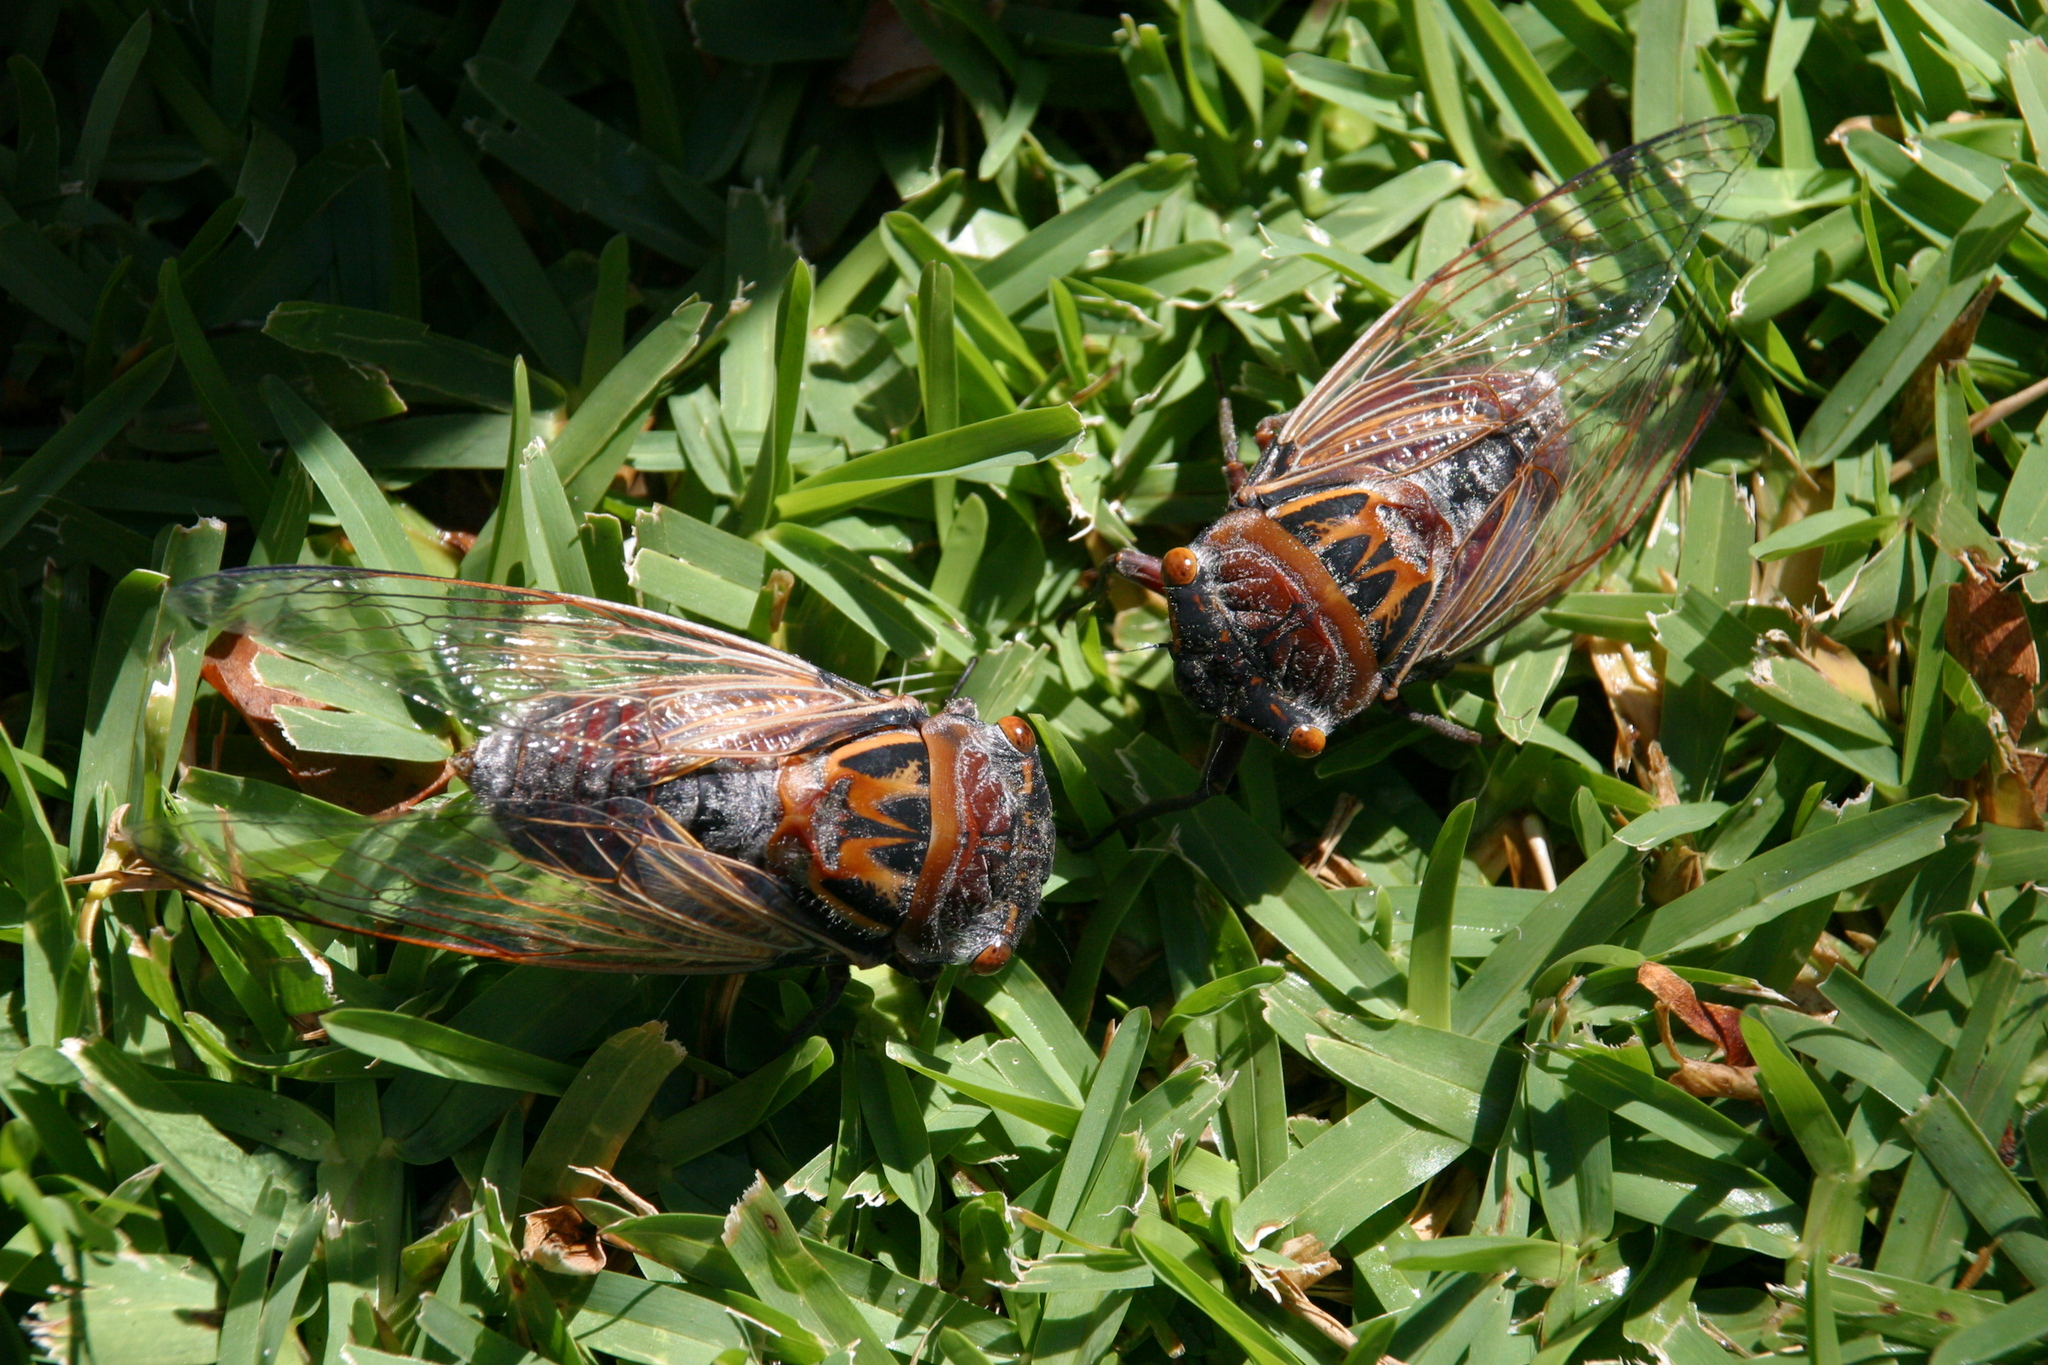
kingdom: Animalia
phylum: Arthropoda
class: Insecta
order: Hemiptera
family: Cicadidae
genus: Thopha
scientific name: Thopha saccata
